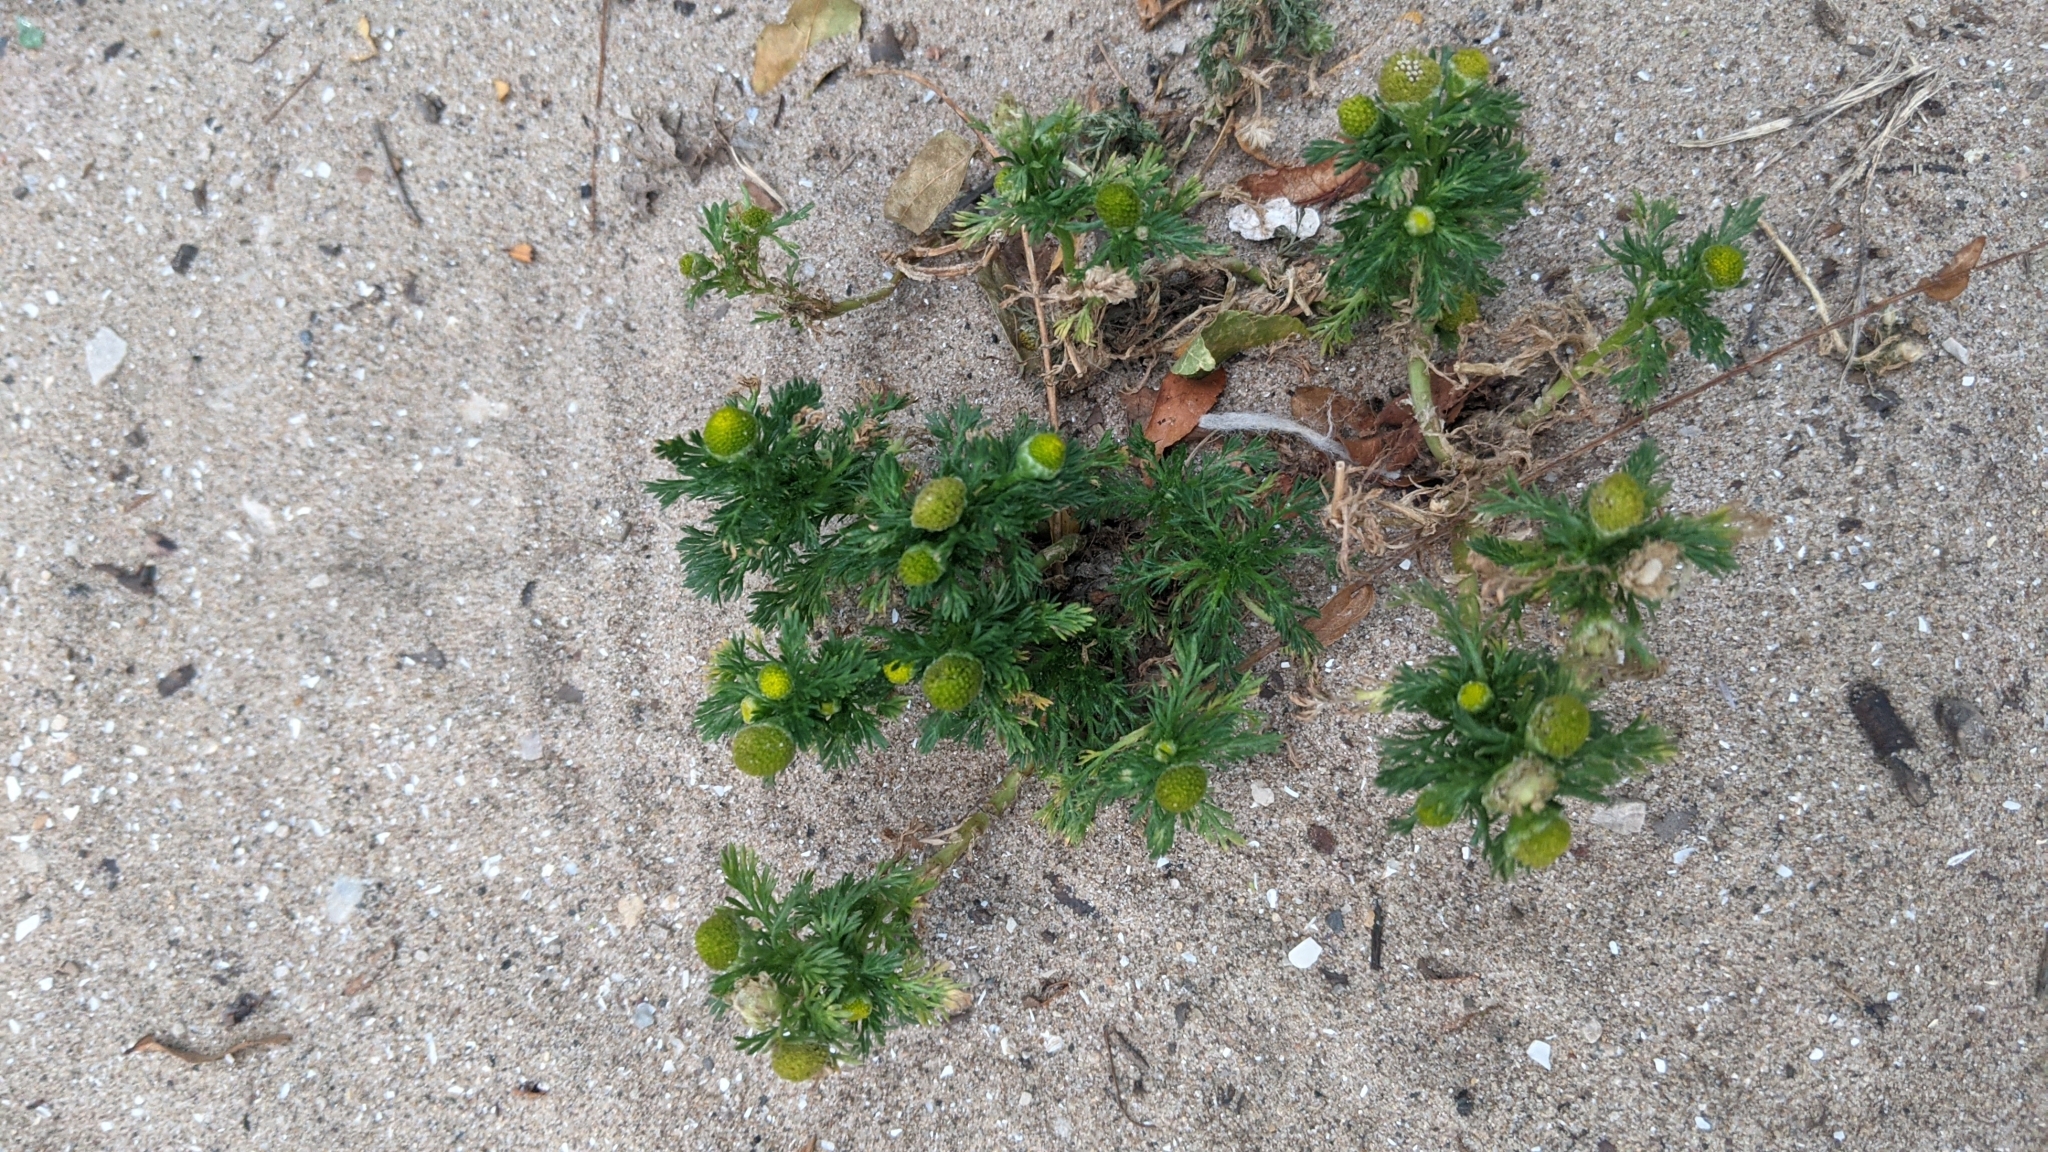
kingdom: Plantae
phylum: Tracheophyta
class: Magnoliopsida
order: Asterales
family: Asteraceae
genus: Matricaria
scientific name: Matricaria discoidea
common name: Disc mayweed
